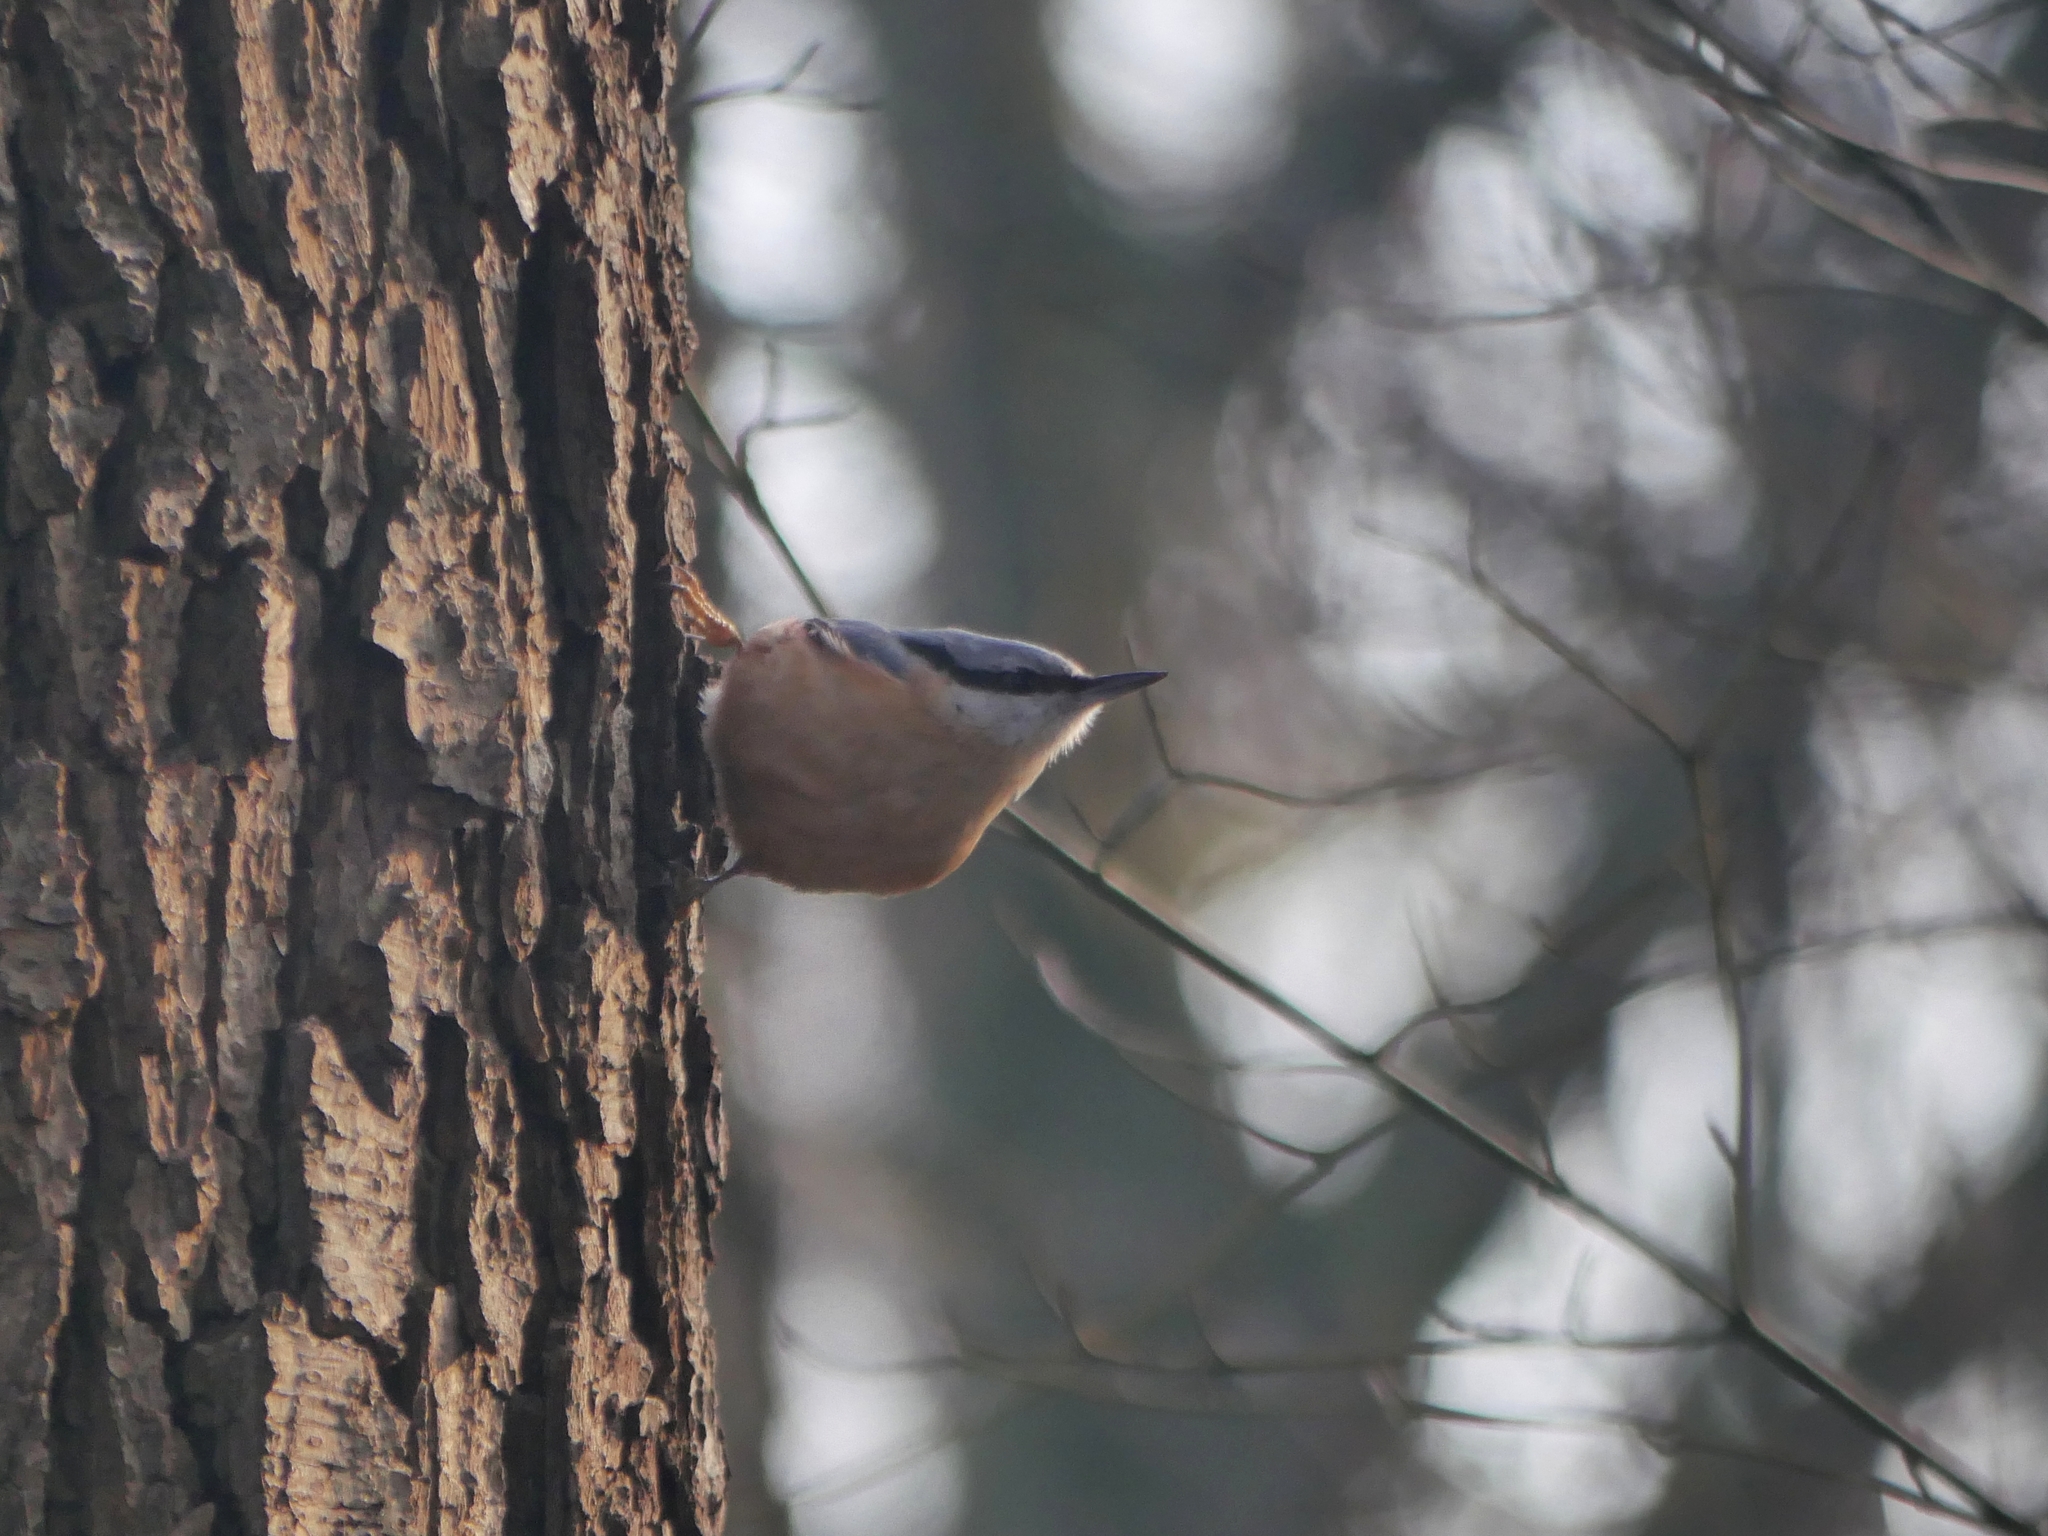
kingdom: Animalia
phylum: Chordata
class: Aves
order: Passeriformes
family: Sittidae
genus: Sitta
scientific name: Sitta europaea
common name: Eurasian nuthatch
